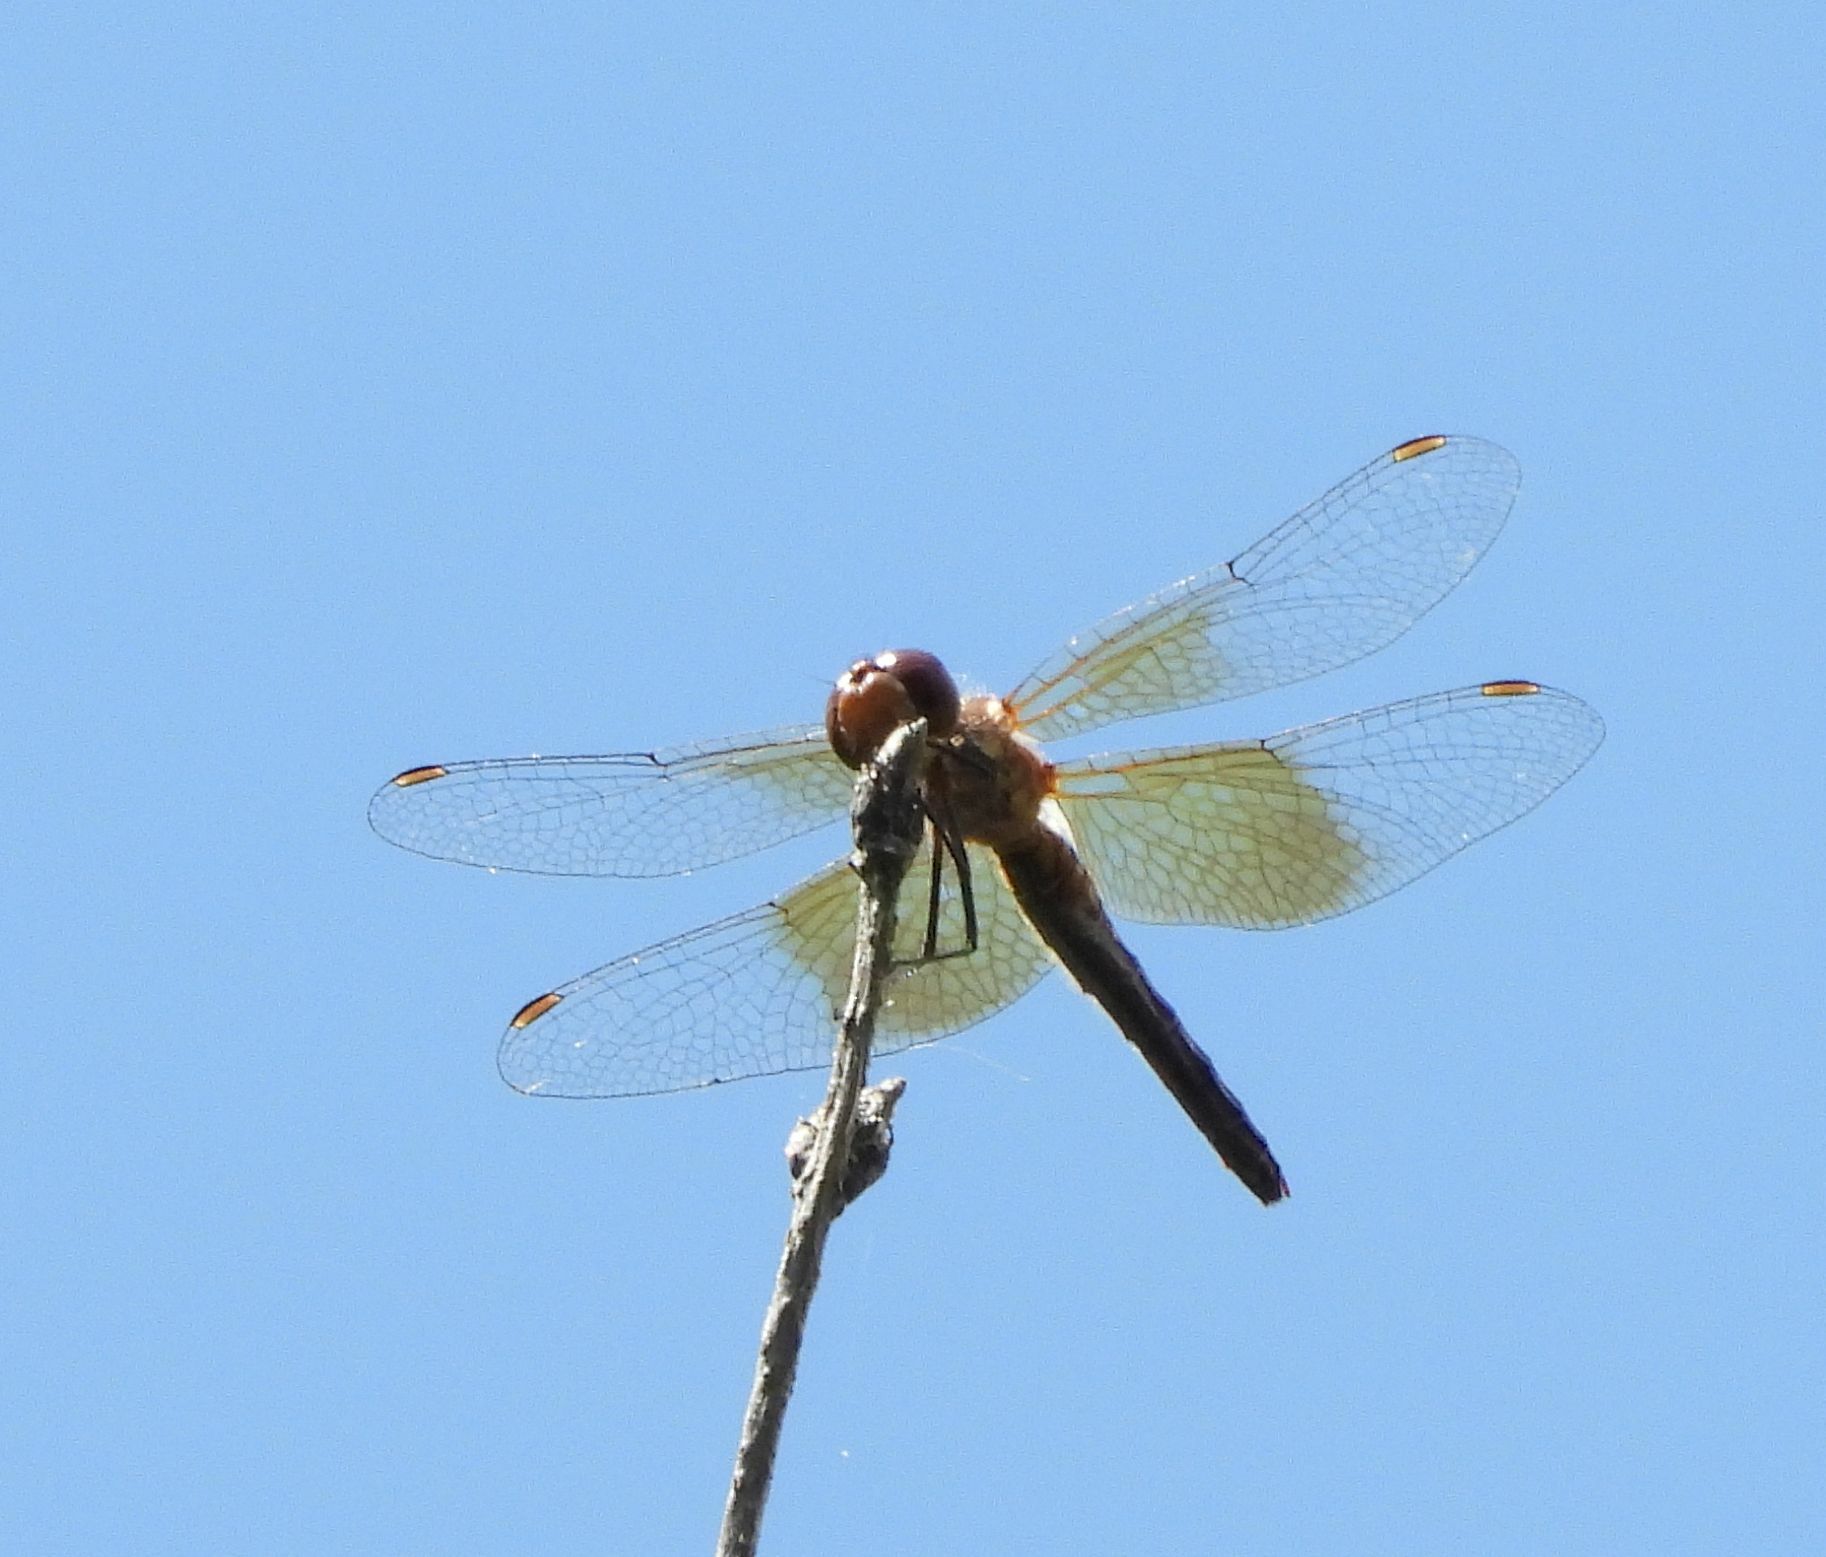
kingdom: Animalia
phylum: Arthropoda
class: Insecta
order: Odonata
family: Libellulidae
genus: Sympetrum
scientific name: Sympetrum semicinctum
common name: Band-winged meadowhawk
